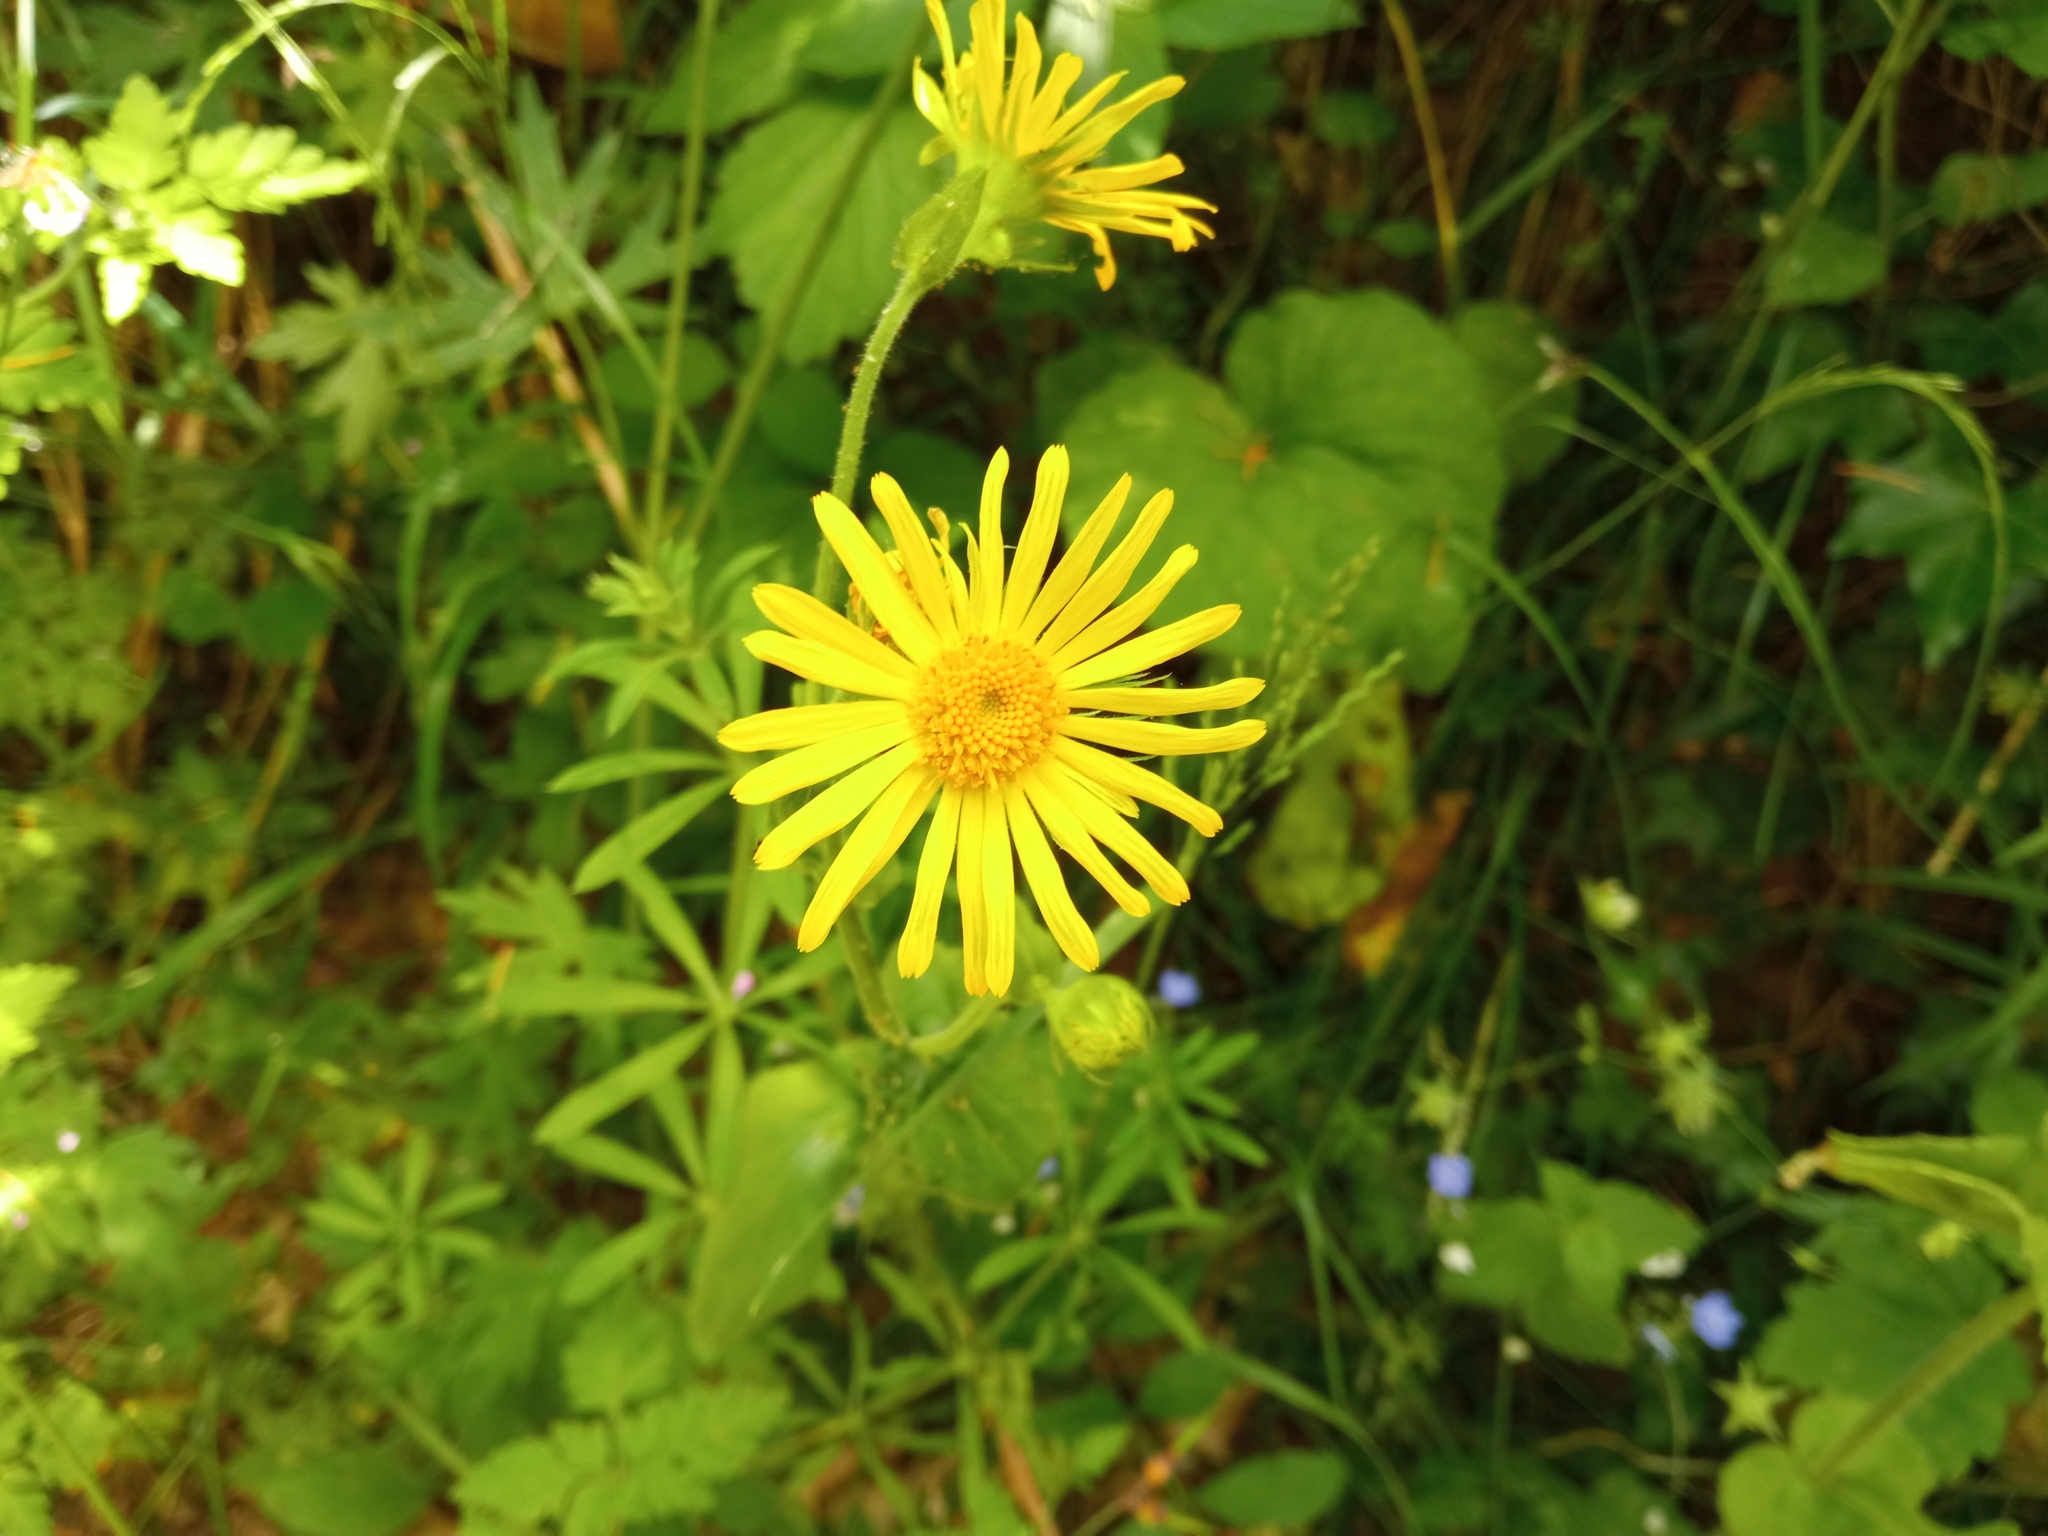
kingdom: Plantae
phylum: Tracheophyta
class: Magnoliopsida
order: Asterales
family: Asteraceae
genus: Doronicum
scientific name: Doronicum pardalianches
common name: Leopard's-bane
